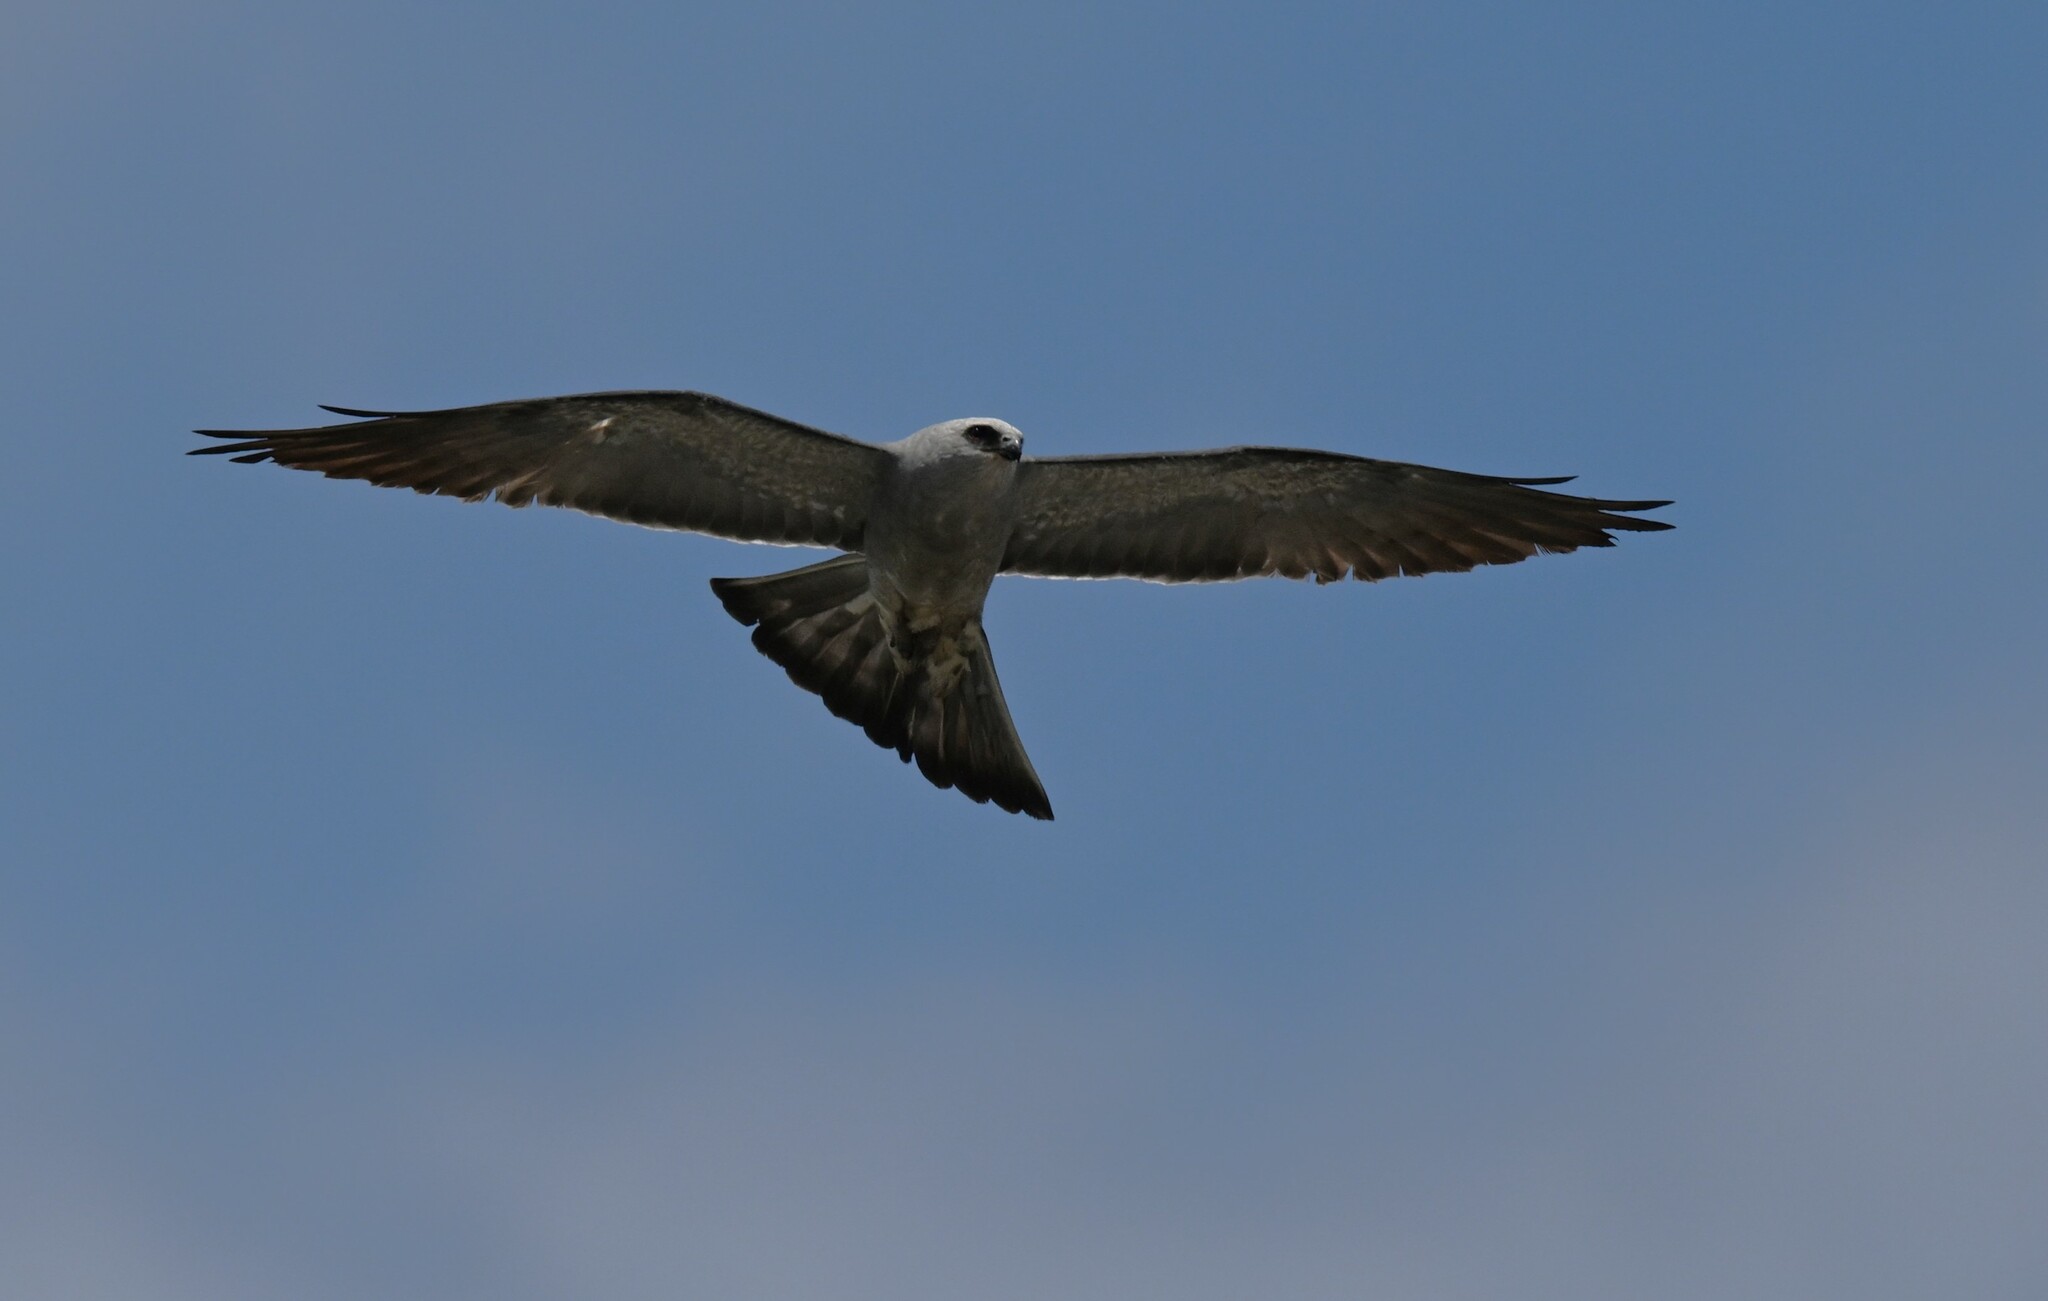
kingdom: Animalia
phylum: Chordata
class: Aves
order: Accipitriformes
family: Accipitridae
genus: Ictinia
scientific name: Ictinia mississippiensis
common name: Mississippi kite
